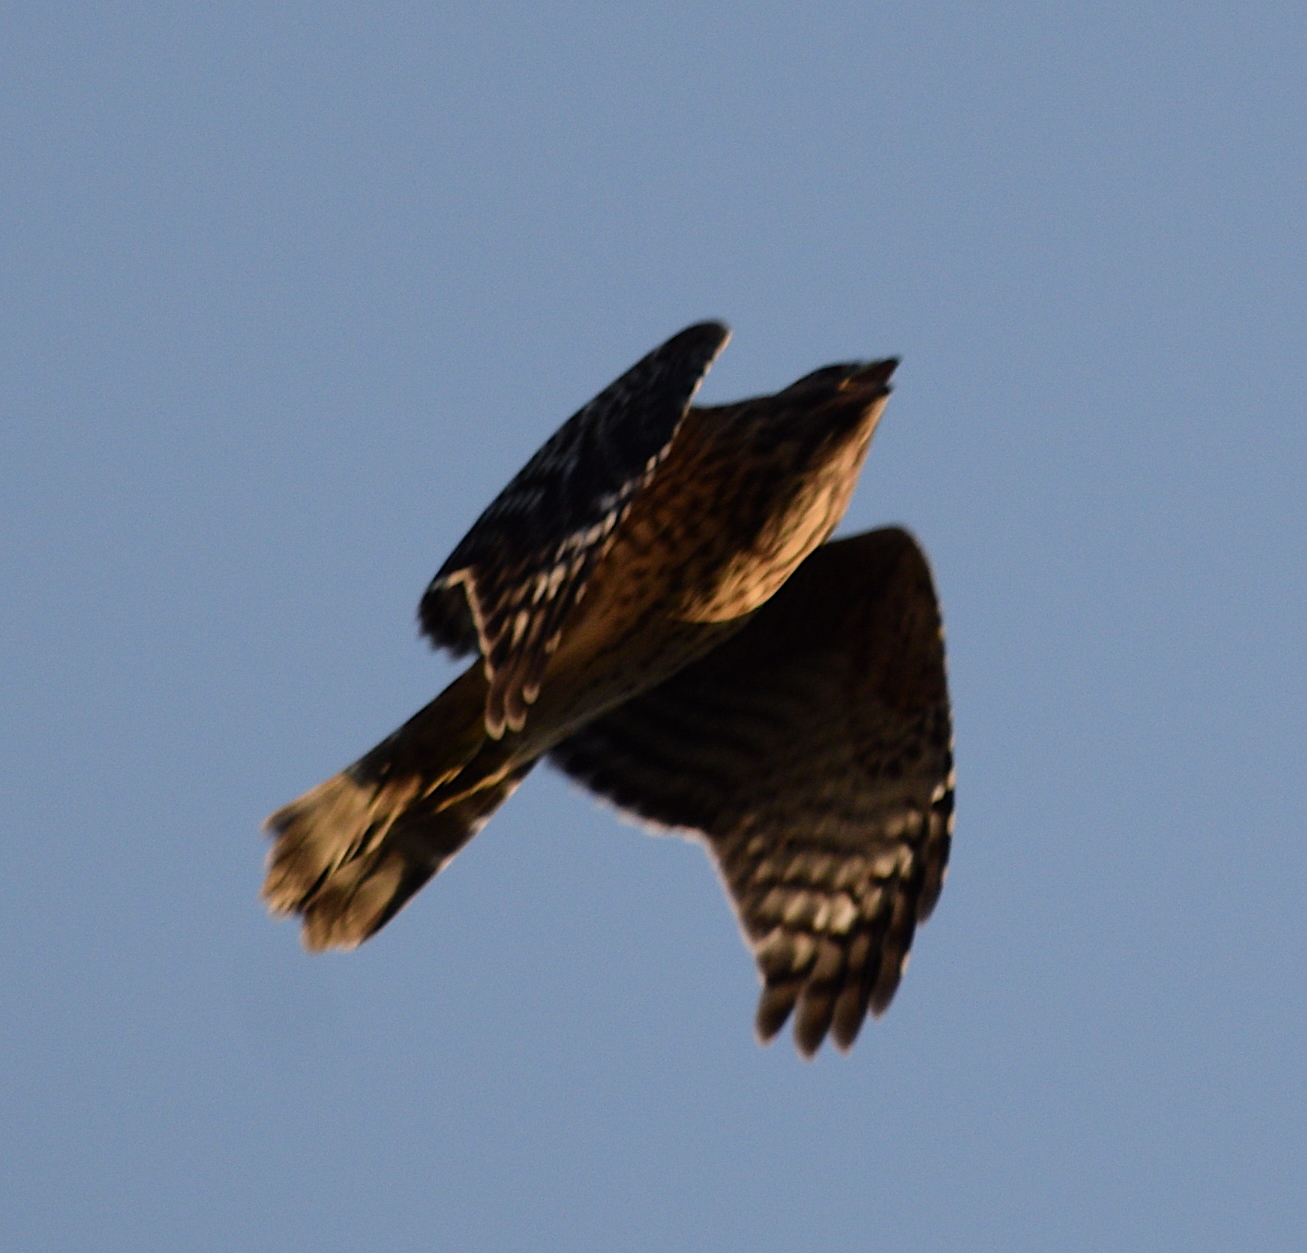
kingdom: Animalia
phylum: Chordata
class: Aves
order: Accipitriformes
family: Accipitridae
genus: Buteo
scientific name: Buteo lineatus
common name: Red-shouldered hawk
